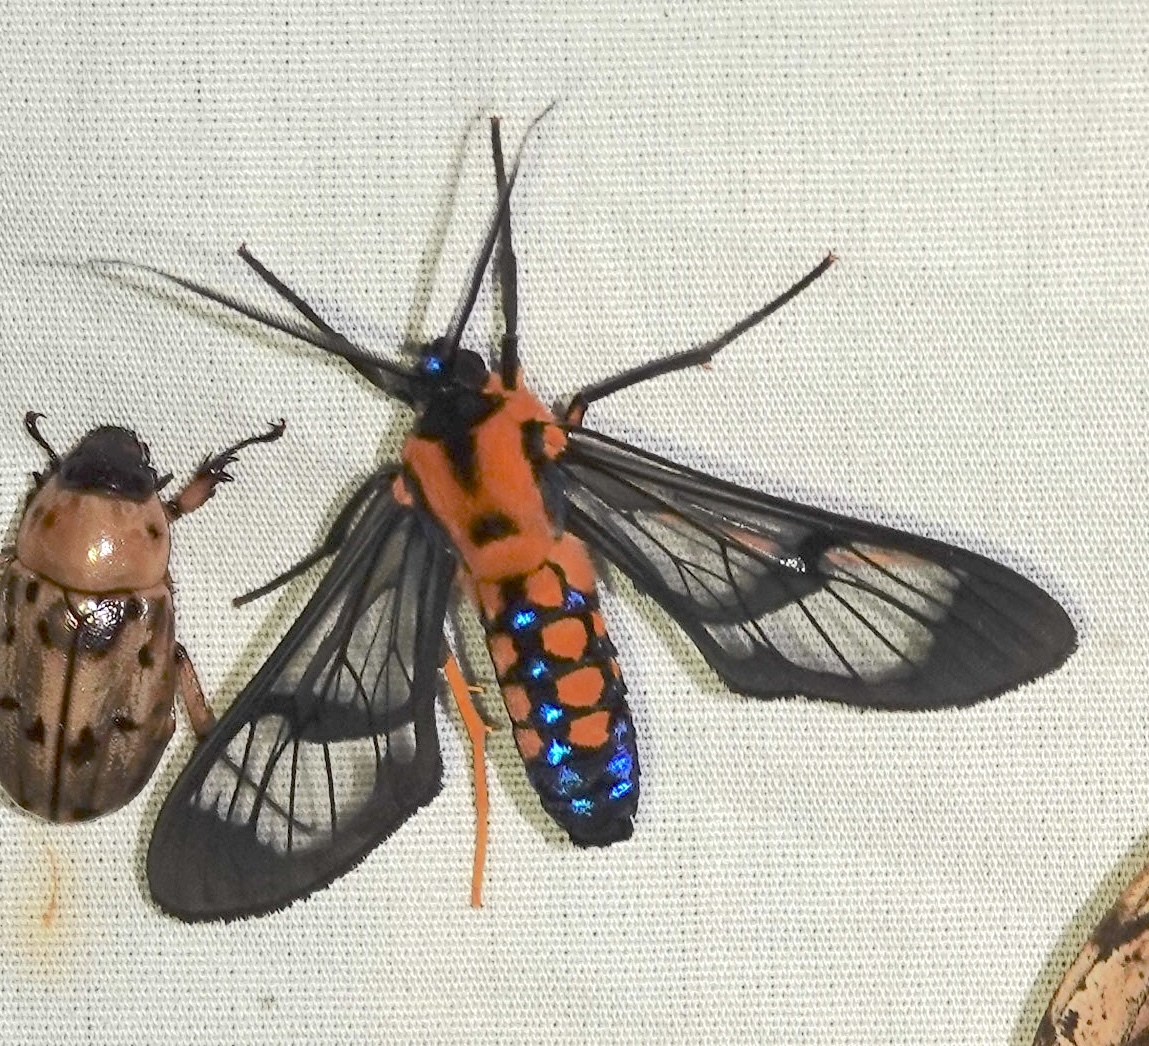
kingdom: Animalia
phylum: Arthropoda
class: Insecta
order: Lepidoptera
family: Erebidae
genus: Sarosa
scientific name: Sarosa connotata
